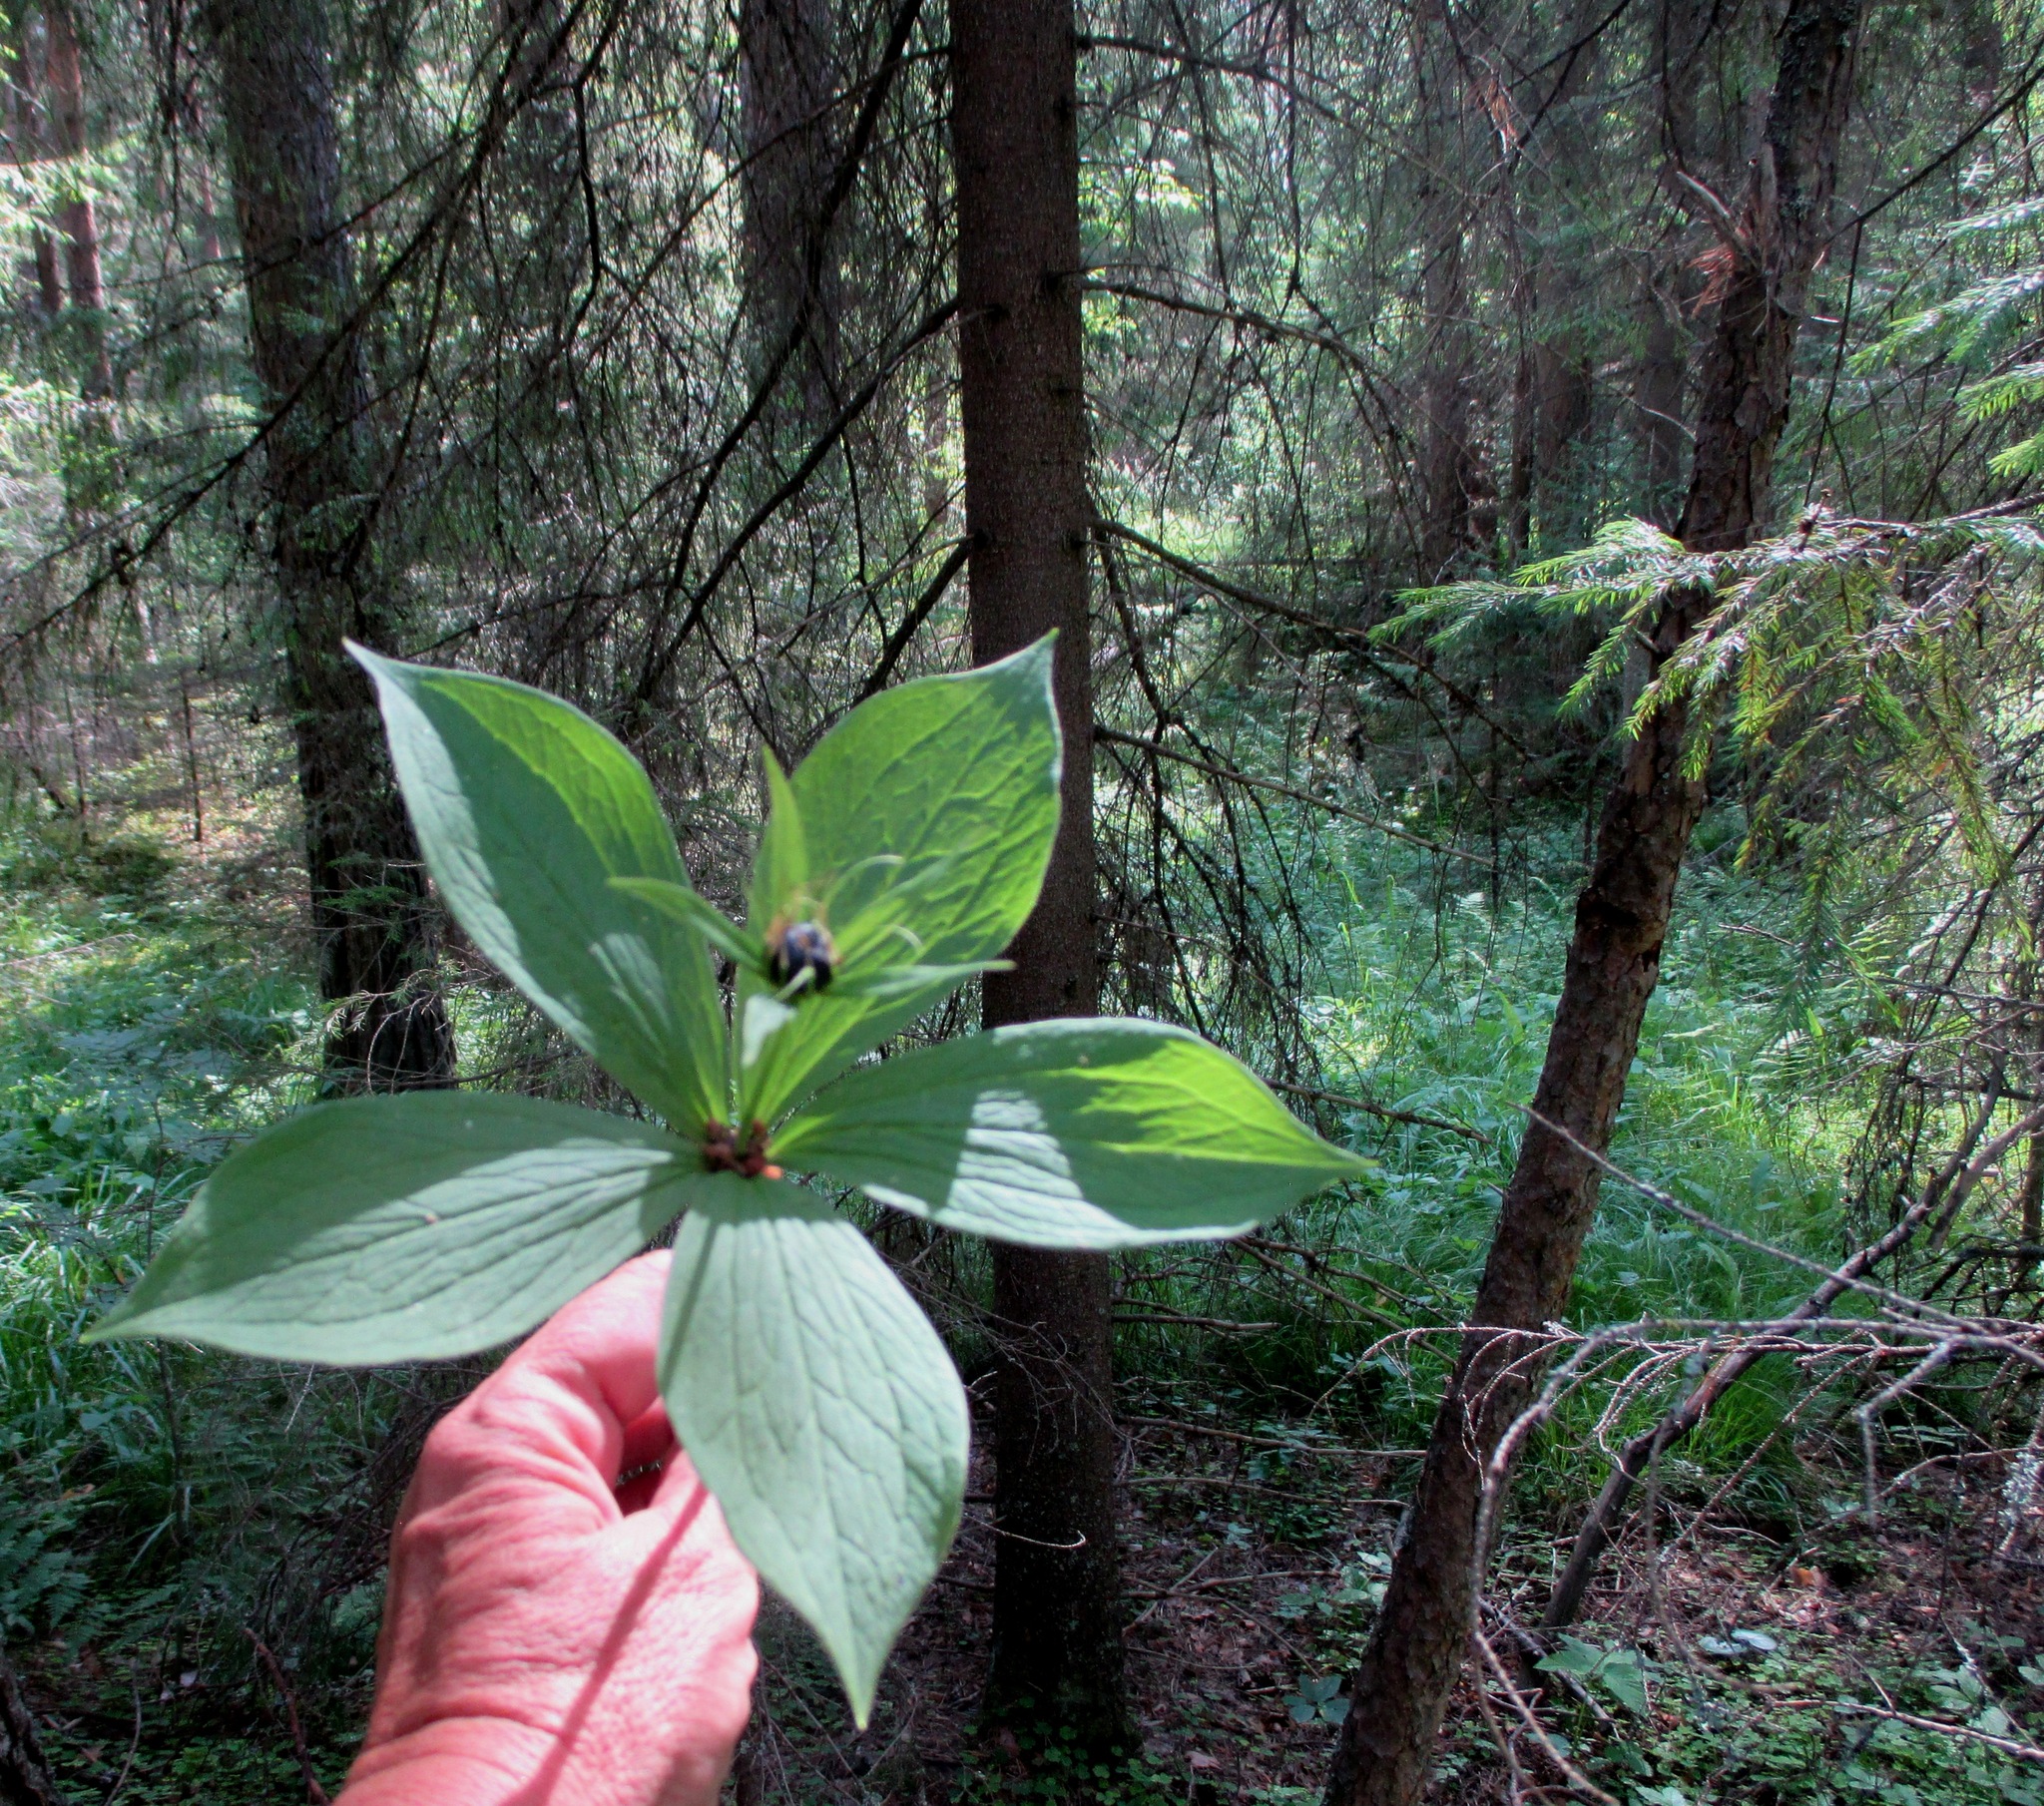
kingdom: Plantae
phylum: Tracheophyta
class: Liliopsida
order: Liliales
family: Melanthiaceae
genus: Paris
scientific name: Paris quadrifolia
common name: Herb-paris
